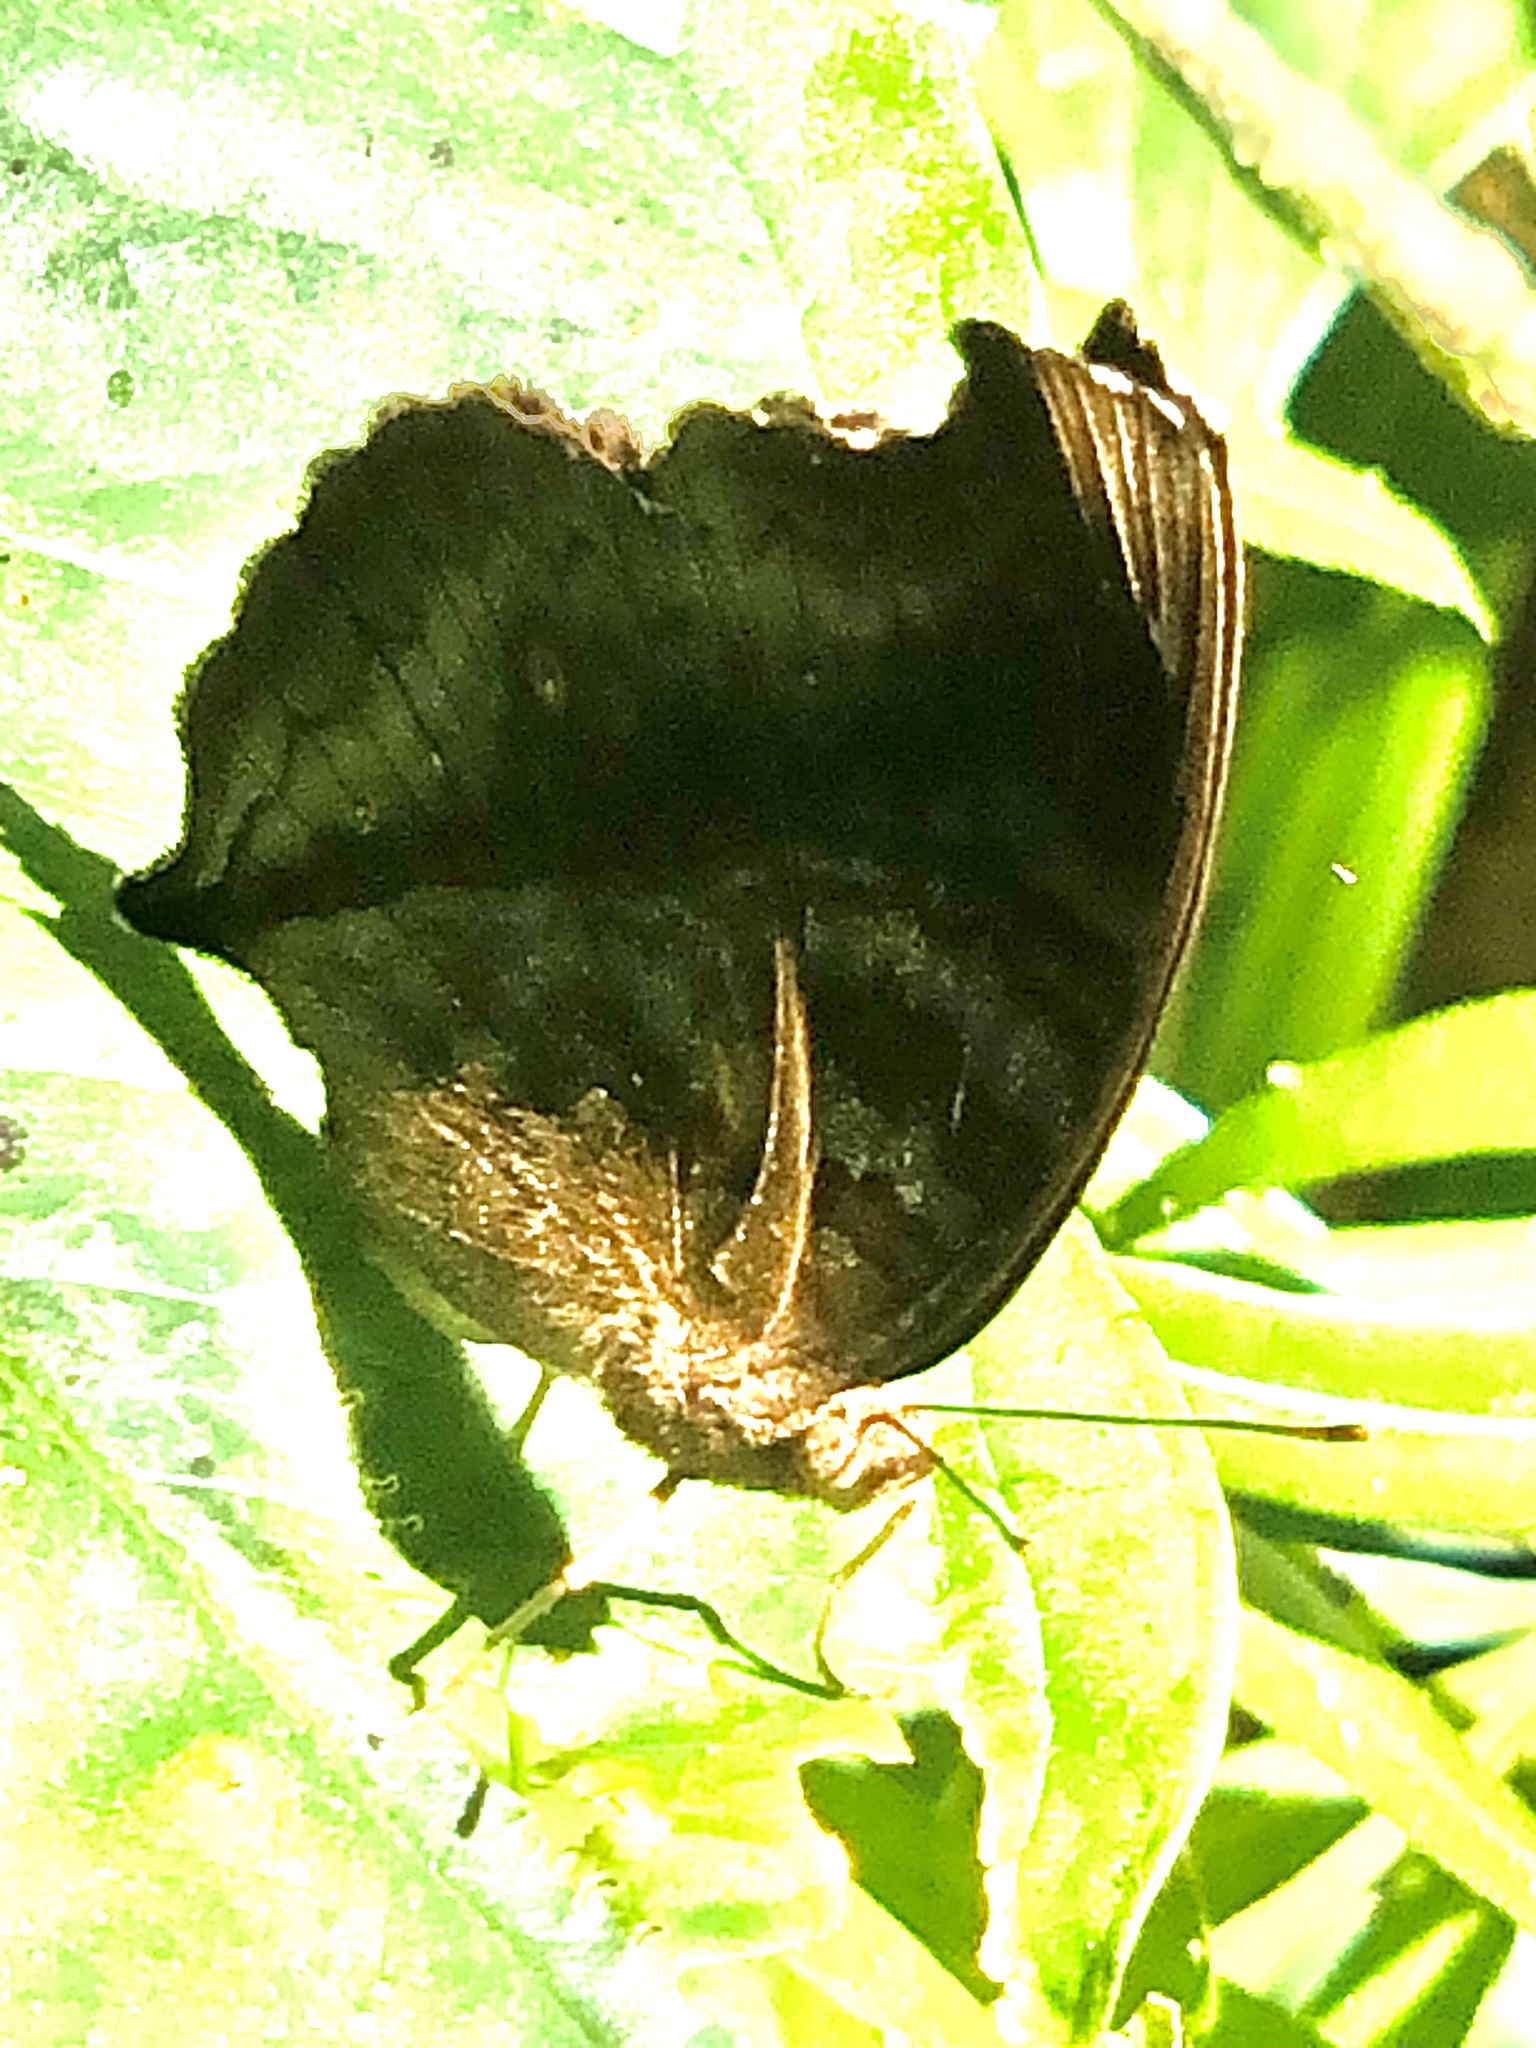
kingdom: Animalia
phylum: Arthropoda
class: Insecta
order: Lepidoptera
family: Nymphalidae
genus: Junonia
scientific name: Junonia iphita
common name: Chocolate pansy
